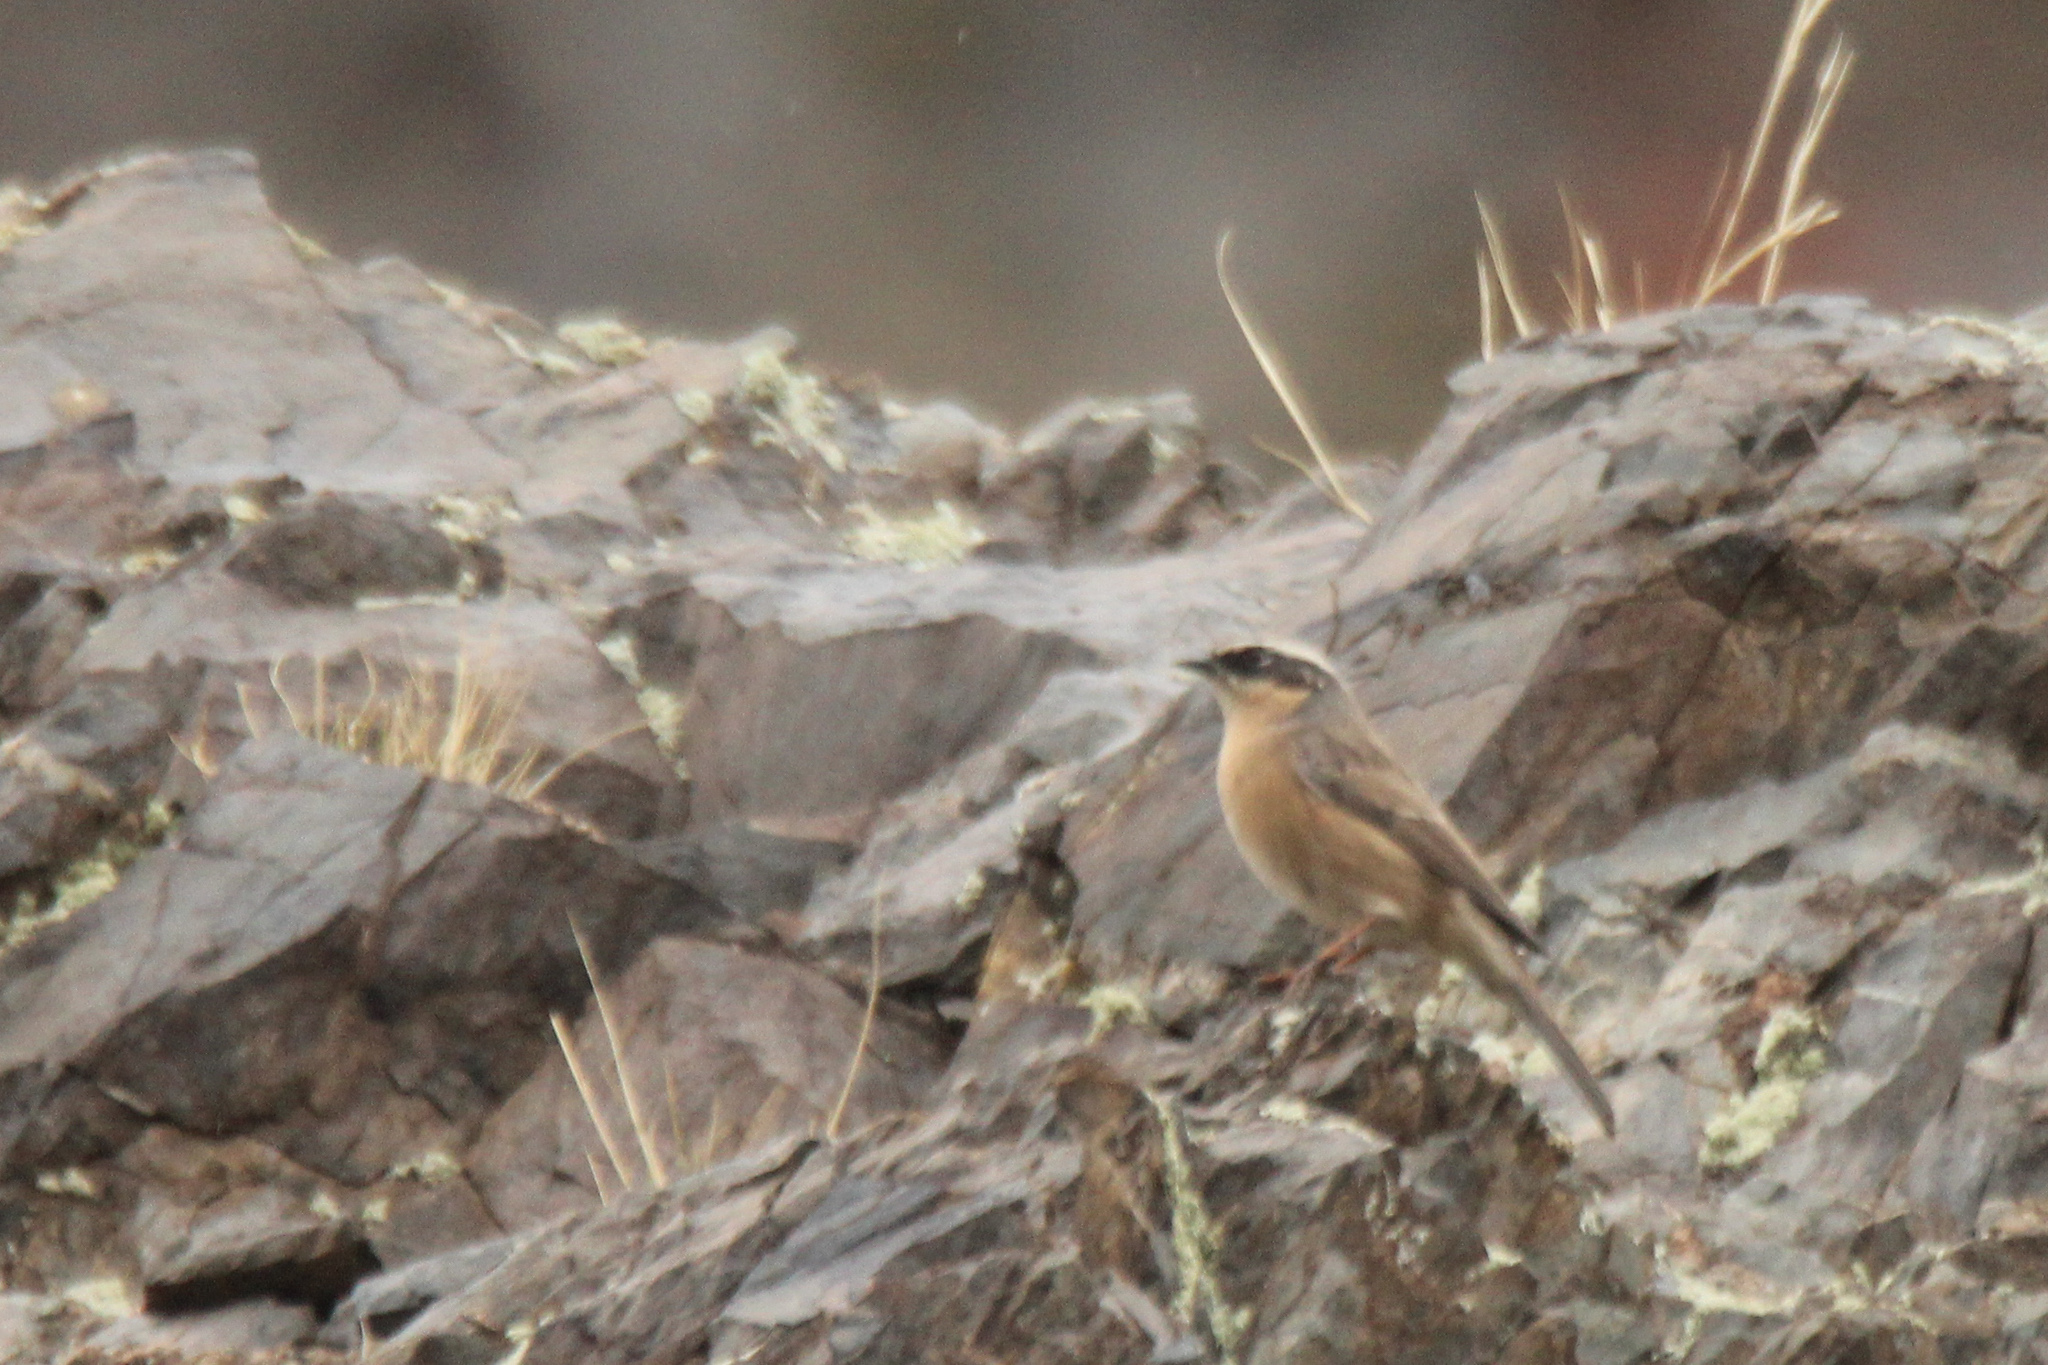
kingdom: Animalia
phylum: Chordata
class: Aves
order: Passeriformes
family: Prunellidae
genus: Prunella
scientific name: Prunella fulvescens
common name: Brown accentor
